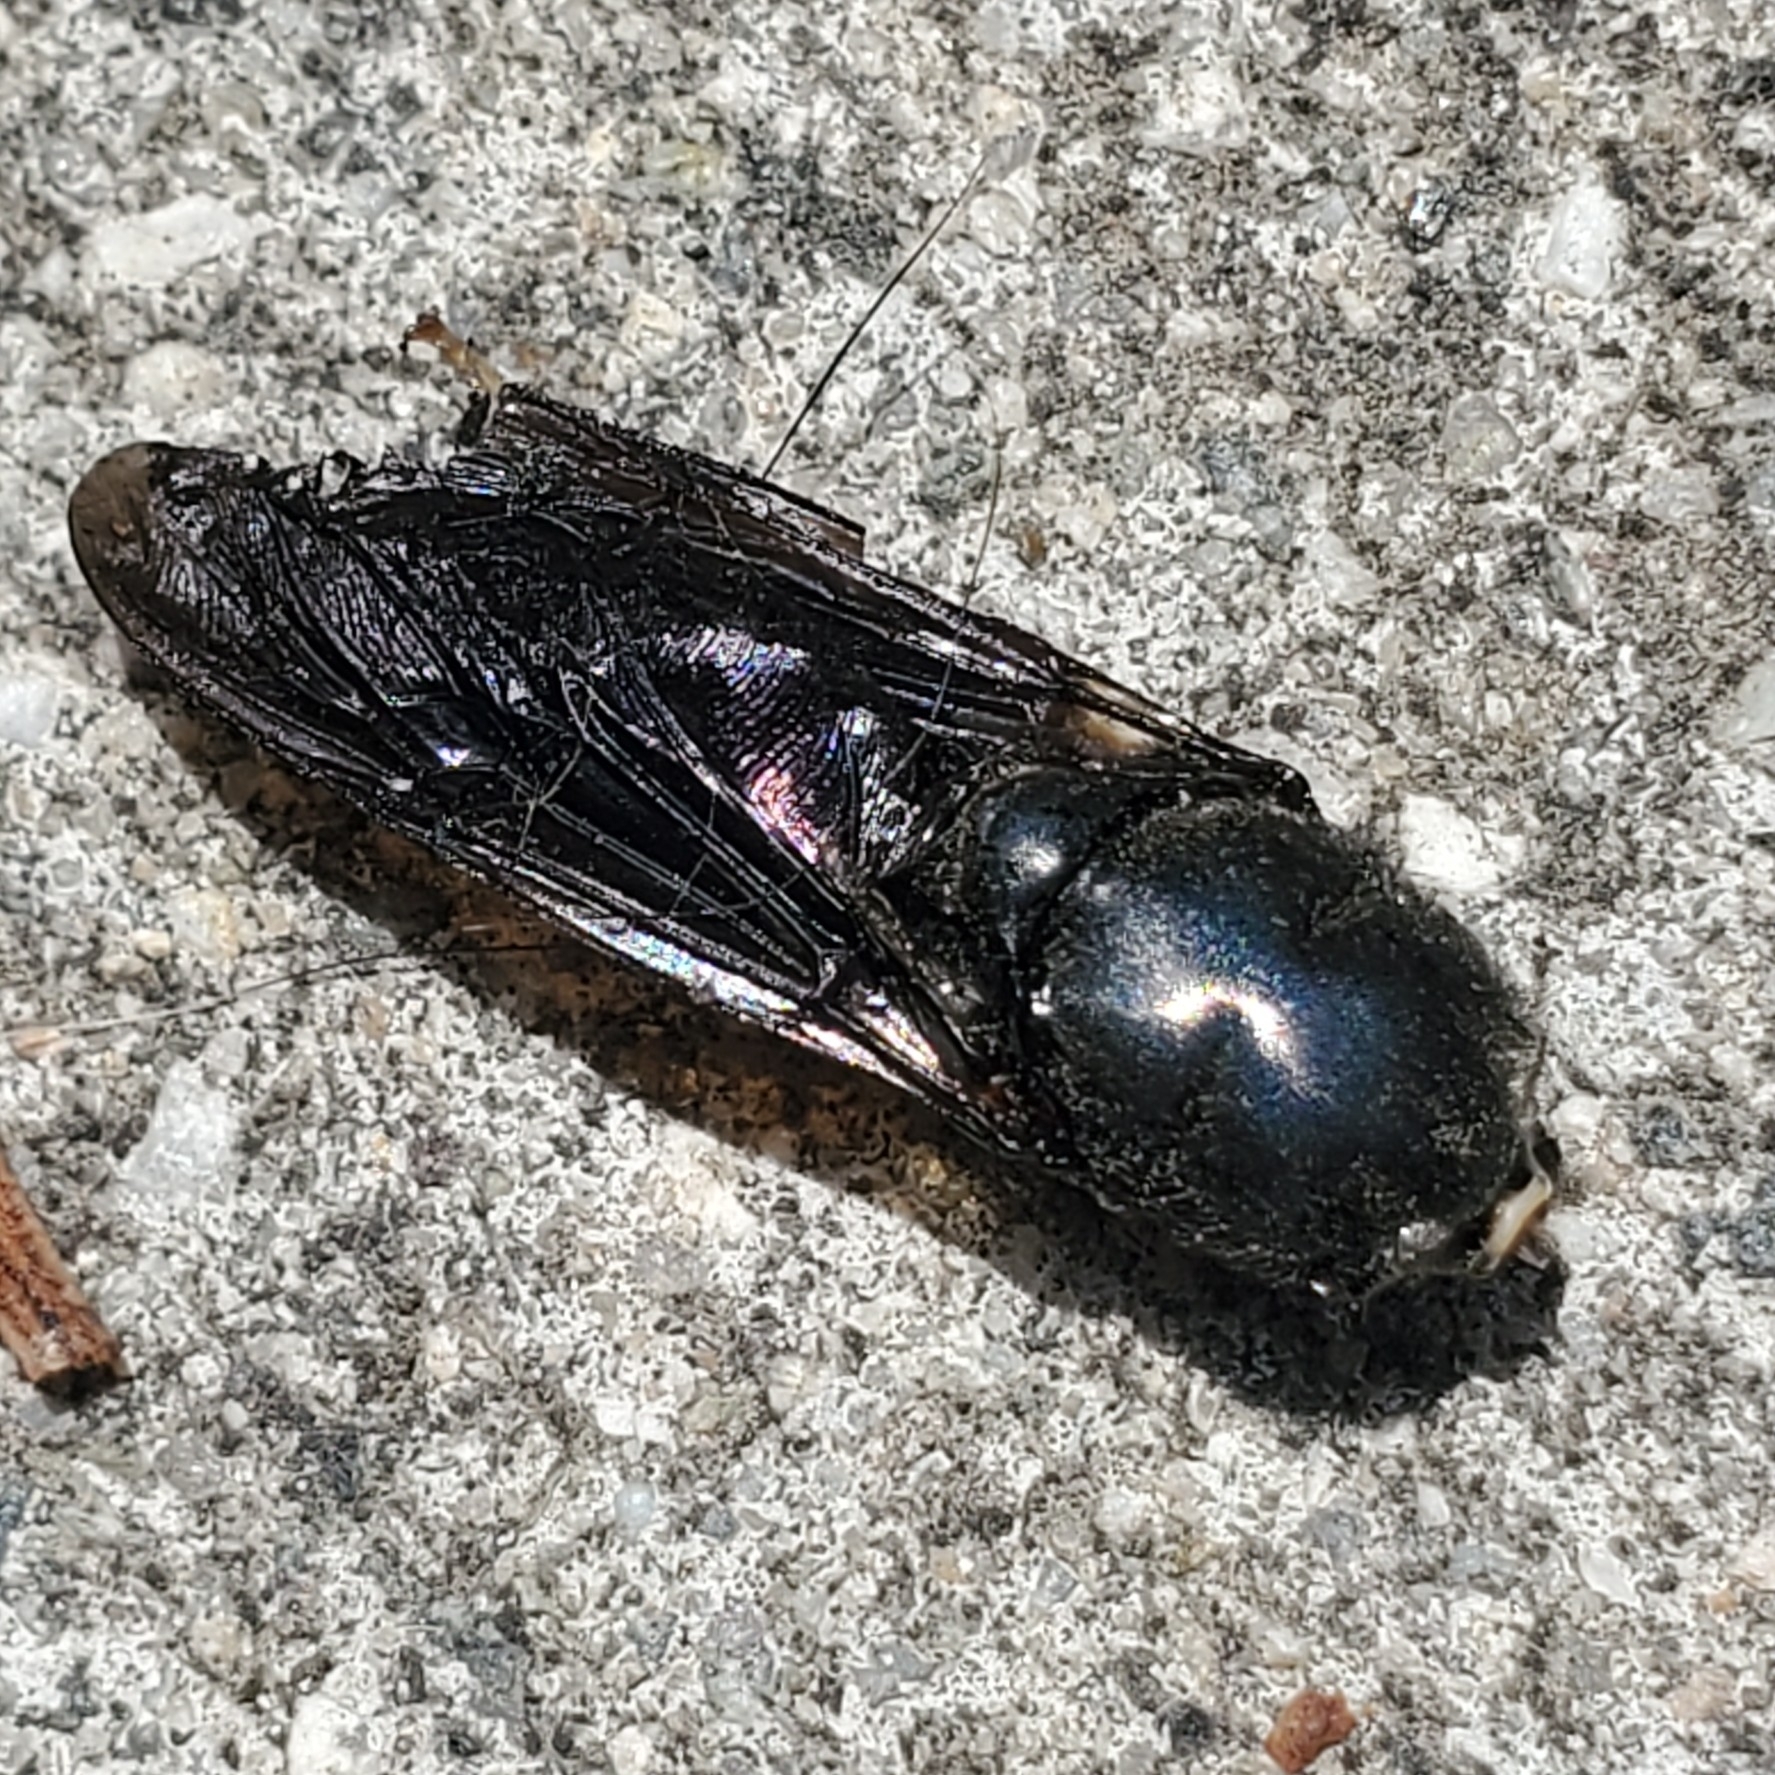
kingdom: Animalia
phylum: Arthropoda
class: Insecta
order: Diptera
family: Stratiomyidae
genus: Hermetia
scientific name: Hermetia illucens
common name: Black soldier fly
